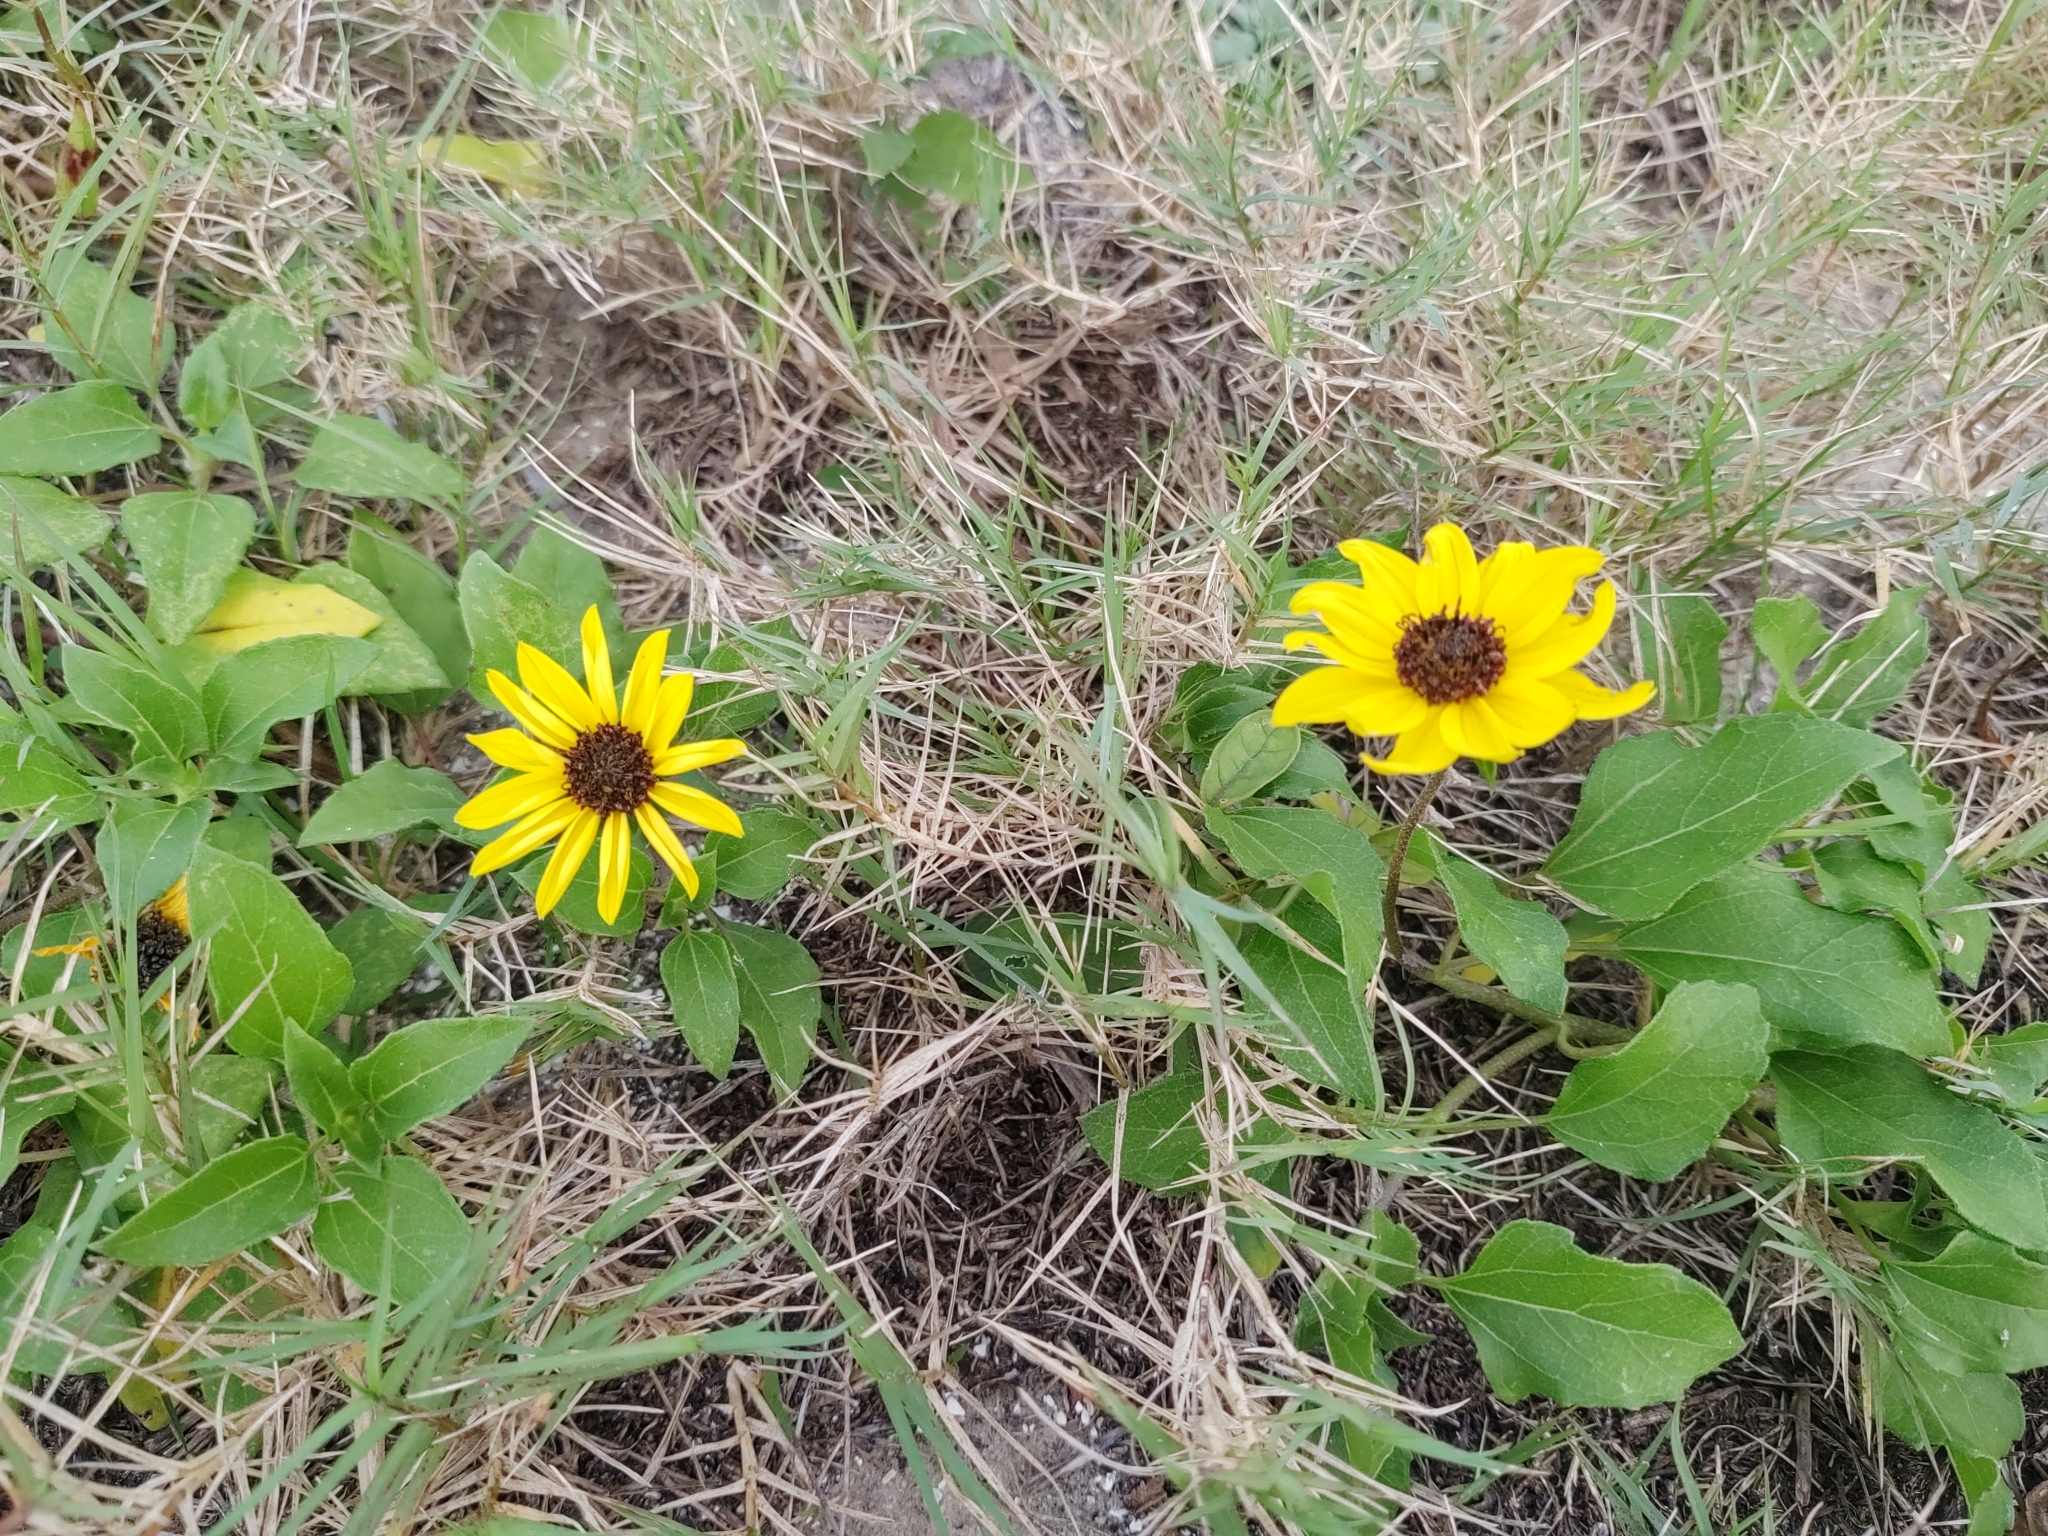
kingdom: Plantae
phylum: Tracheophyta
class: Magnoliopsida
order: Asterales
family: Asteraceae
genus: Helianthus
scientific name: Helianthus debilis
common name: Weak sunflower
